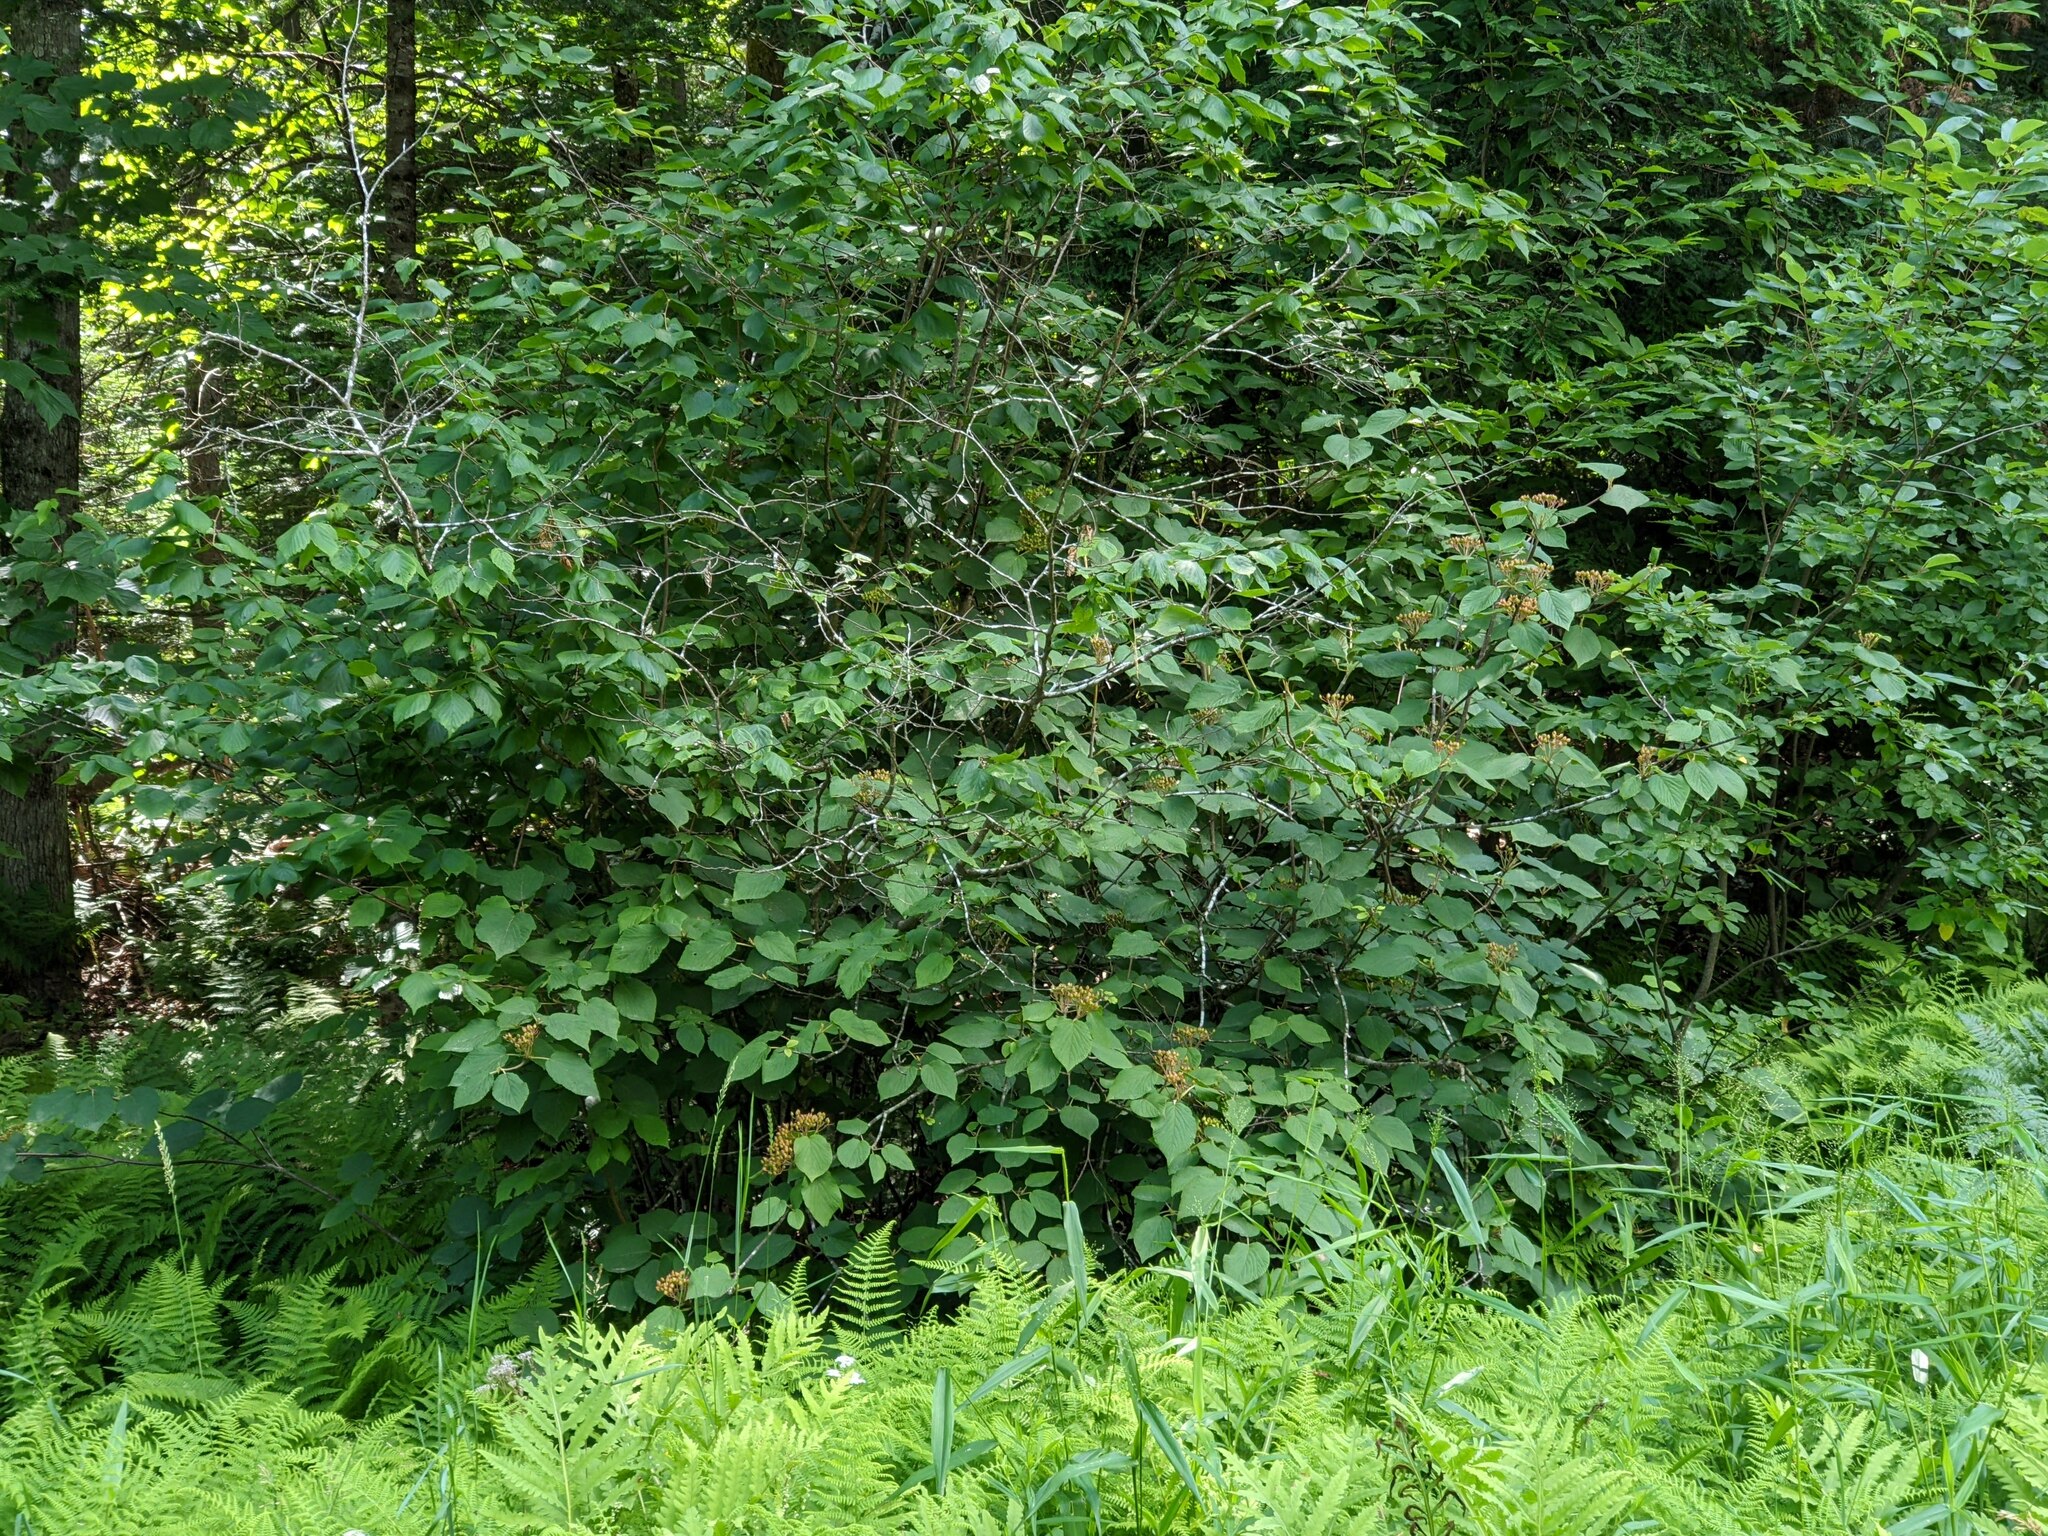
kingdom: Plantae
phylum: Tracheophyta
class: Magnoliopsida
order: Dipsacales
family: Viburnaceae
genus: Viburnum
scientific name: Viburnum lantanoides
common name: Hobblebush
